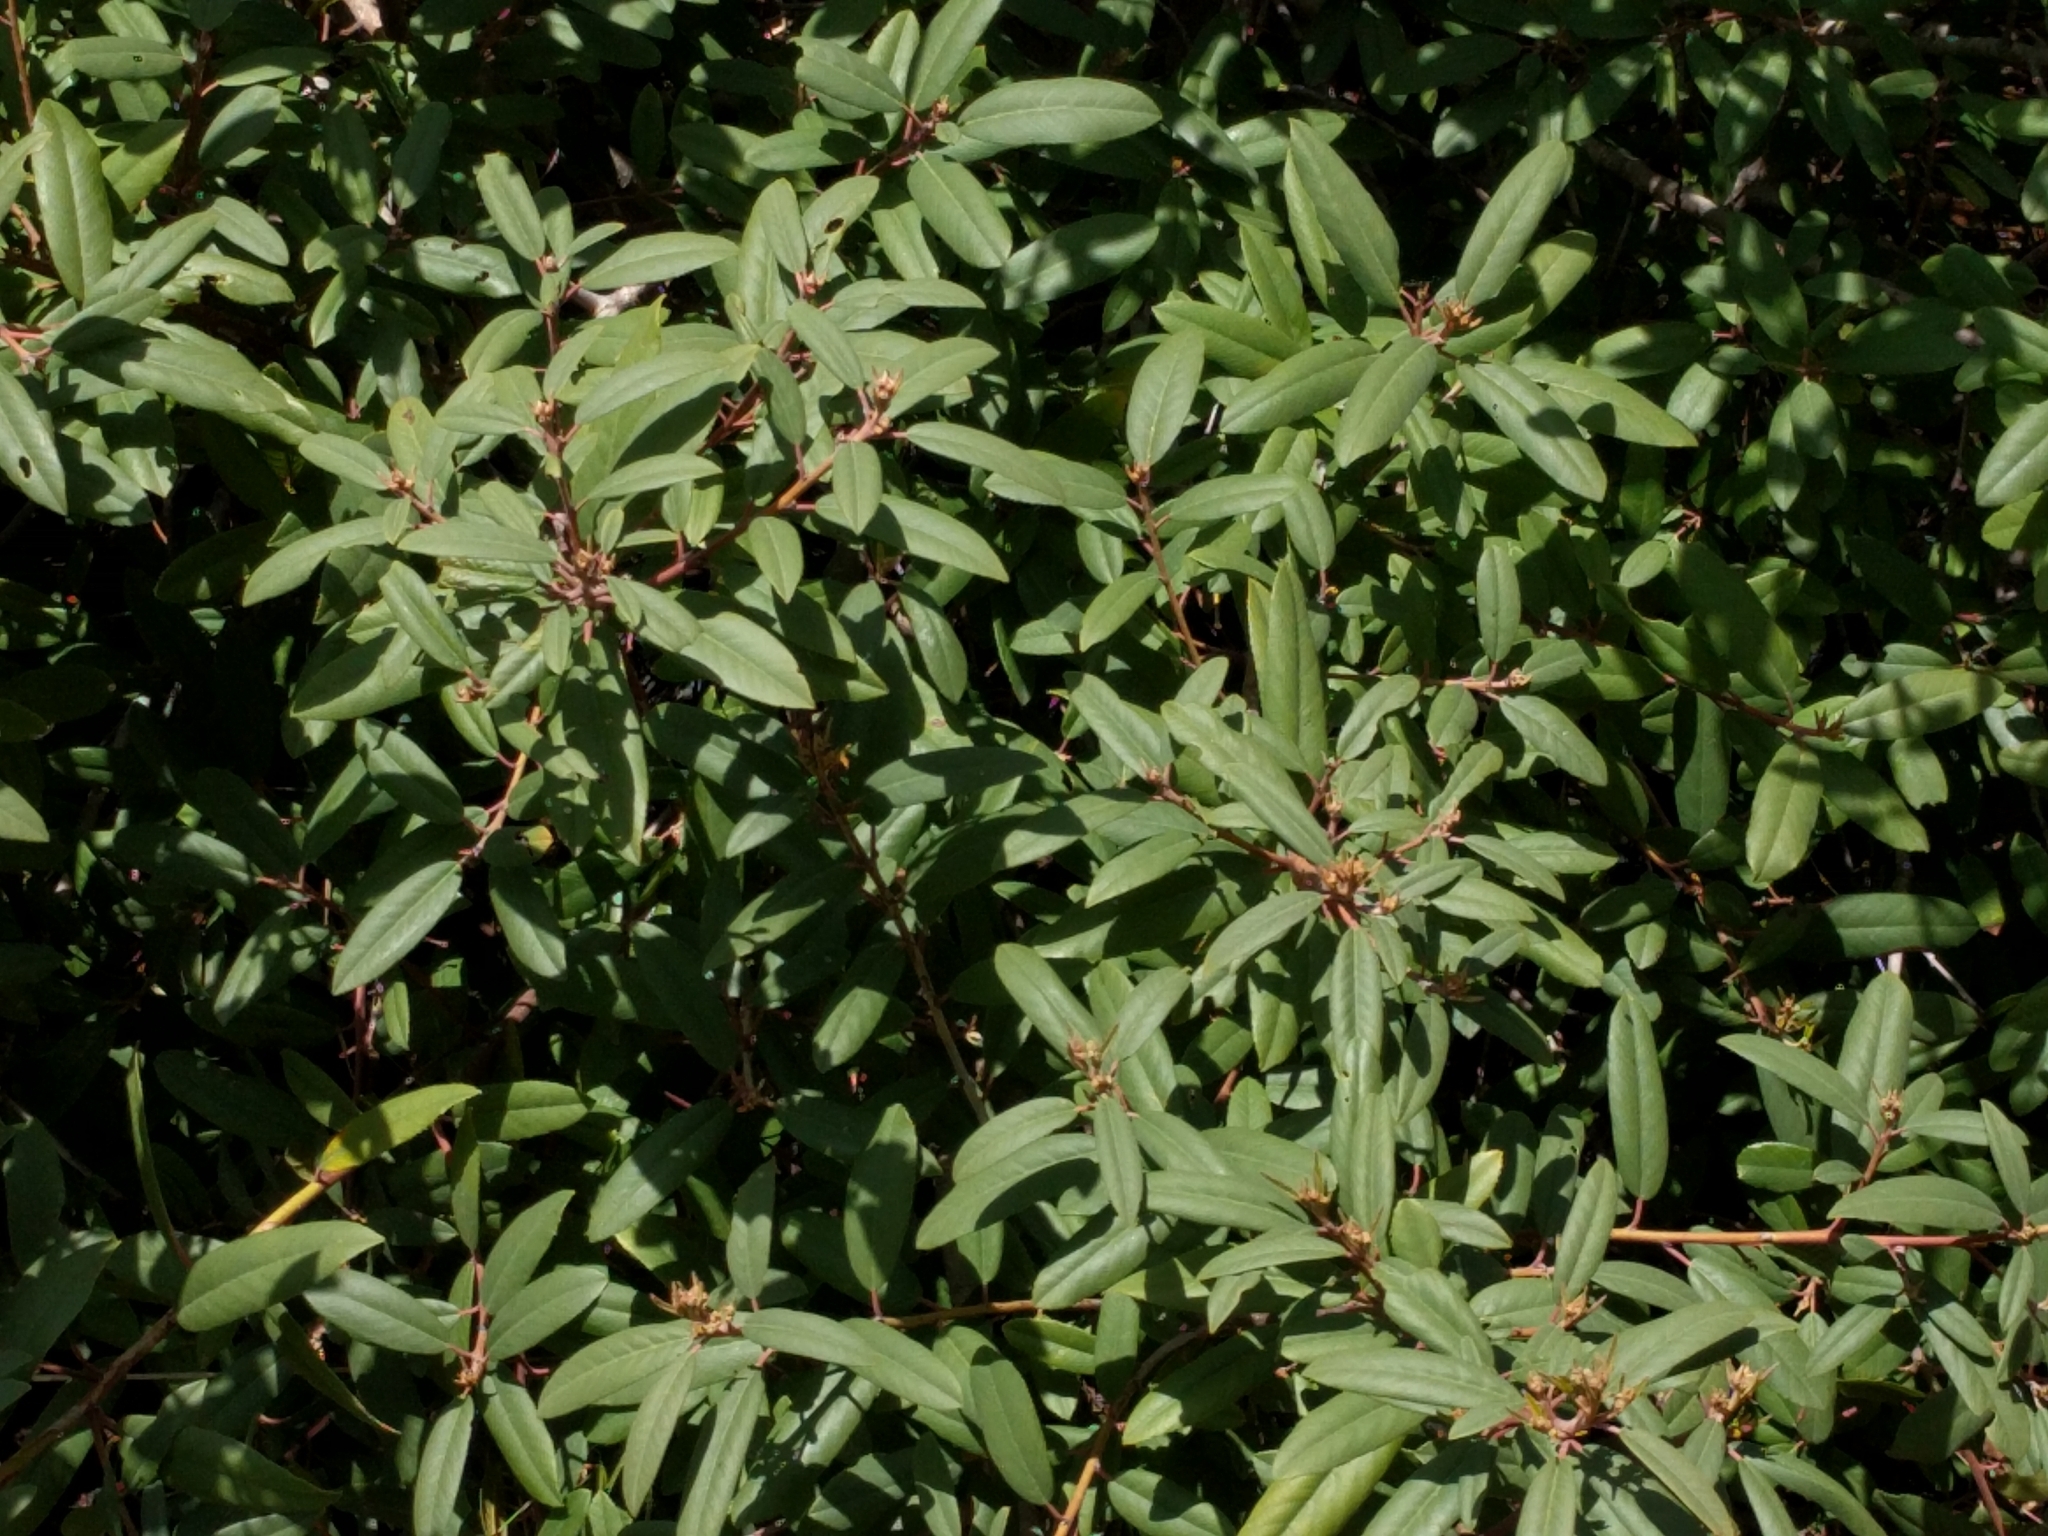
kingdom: Plantae
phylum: Tracheophyta
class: Magnoliopsida
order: Rosales
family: Rhamnaceae
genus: Frangula
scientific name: Frangula californica
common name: California buckthorn
